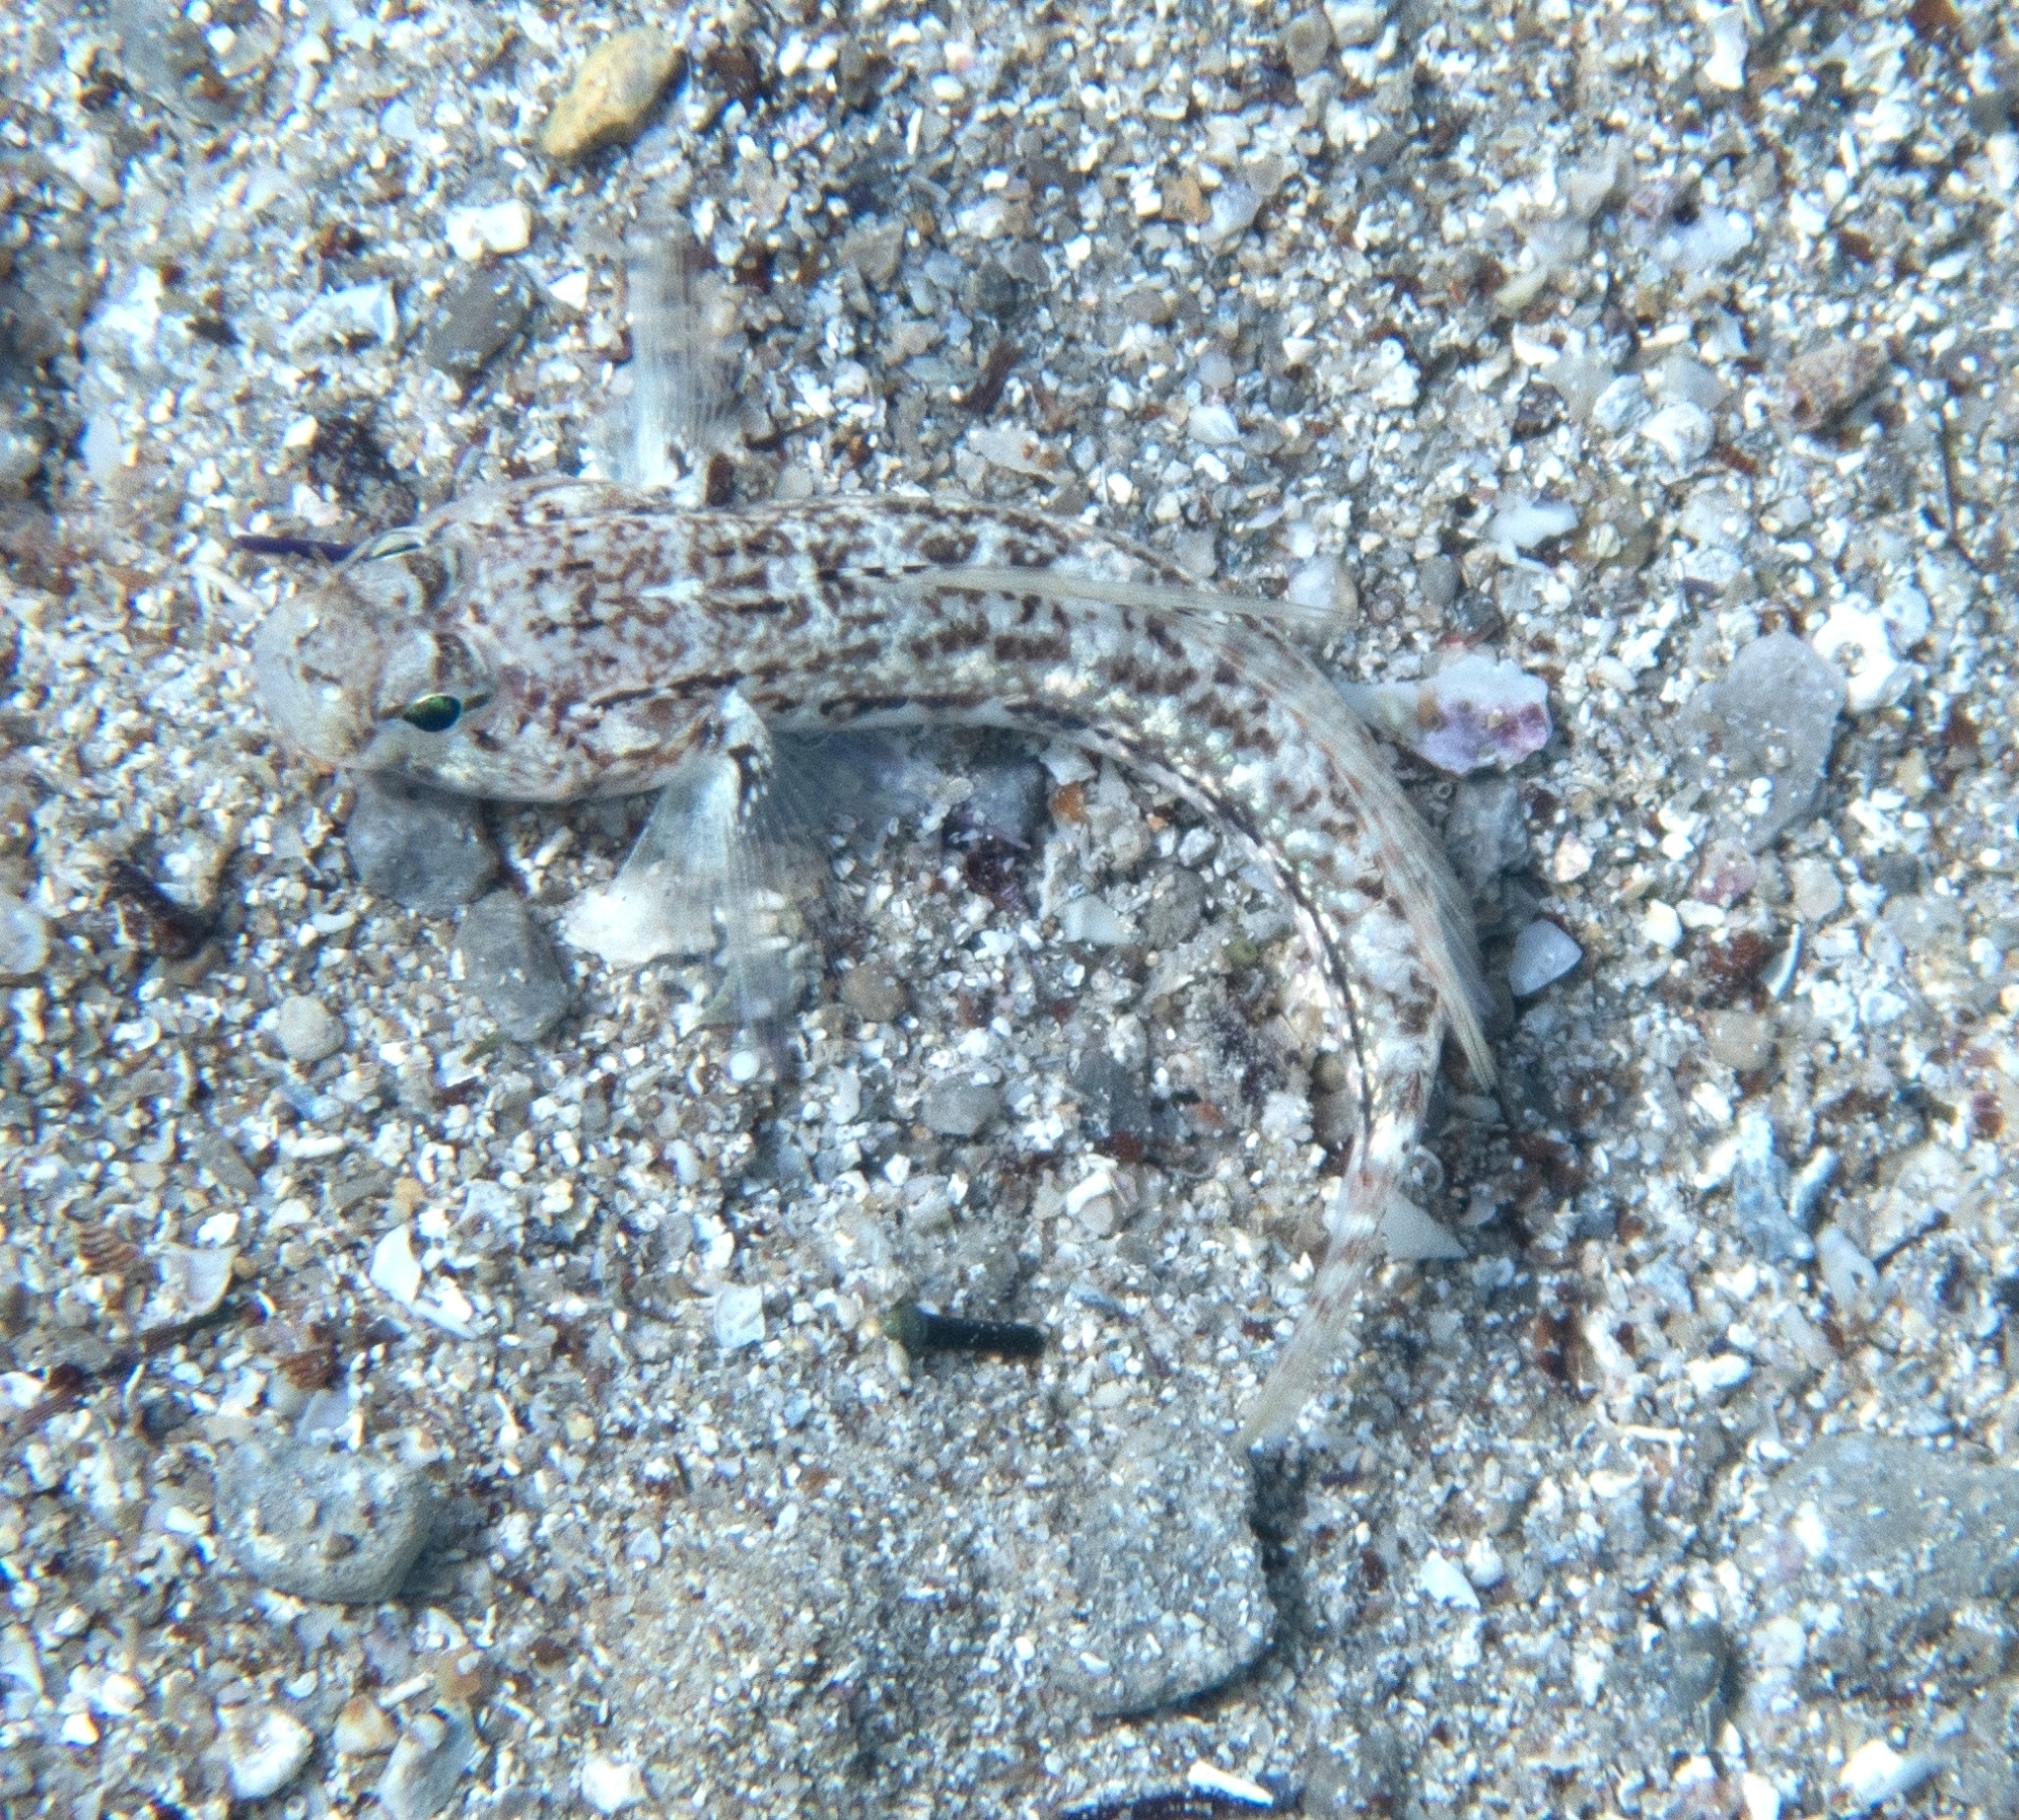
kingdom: Animalia
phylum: Chordata
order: Perciformes
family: Gobiidae
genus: Gobius
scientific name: Gobius roulei
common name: Roule's goby
